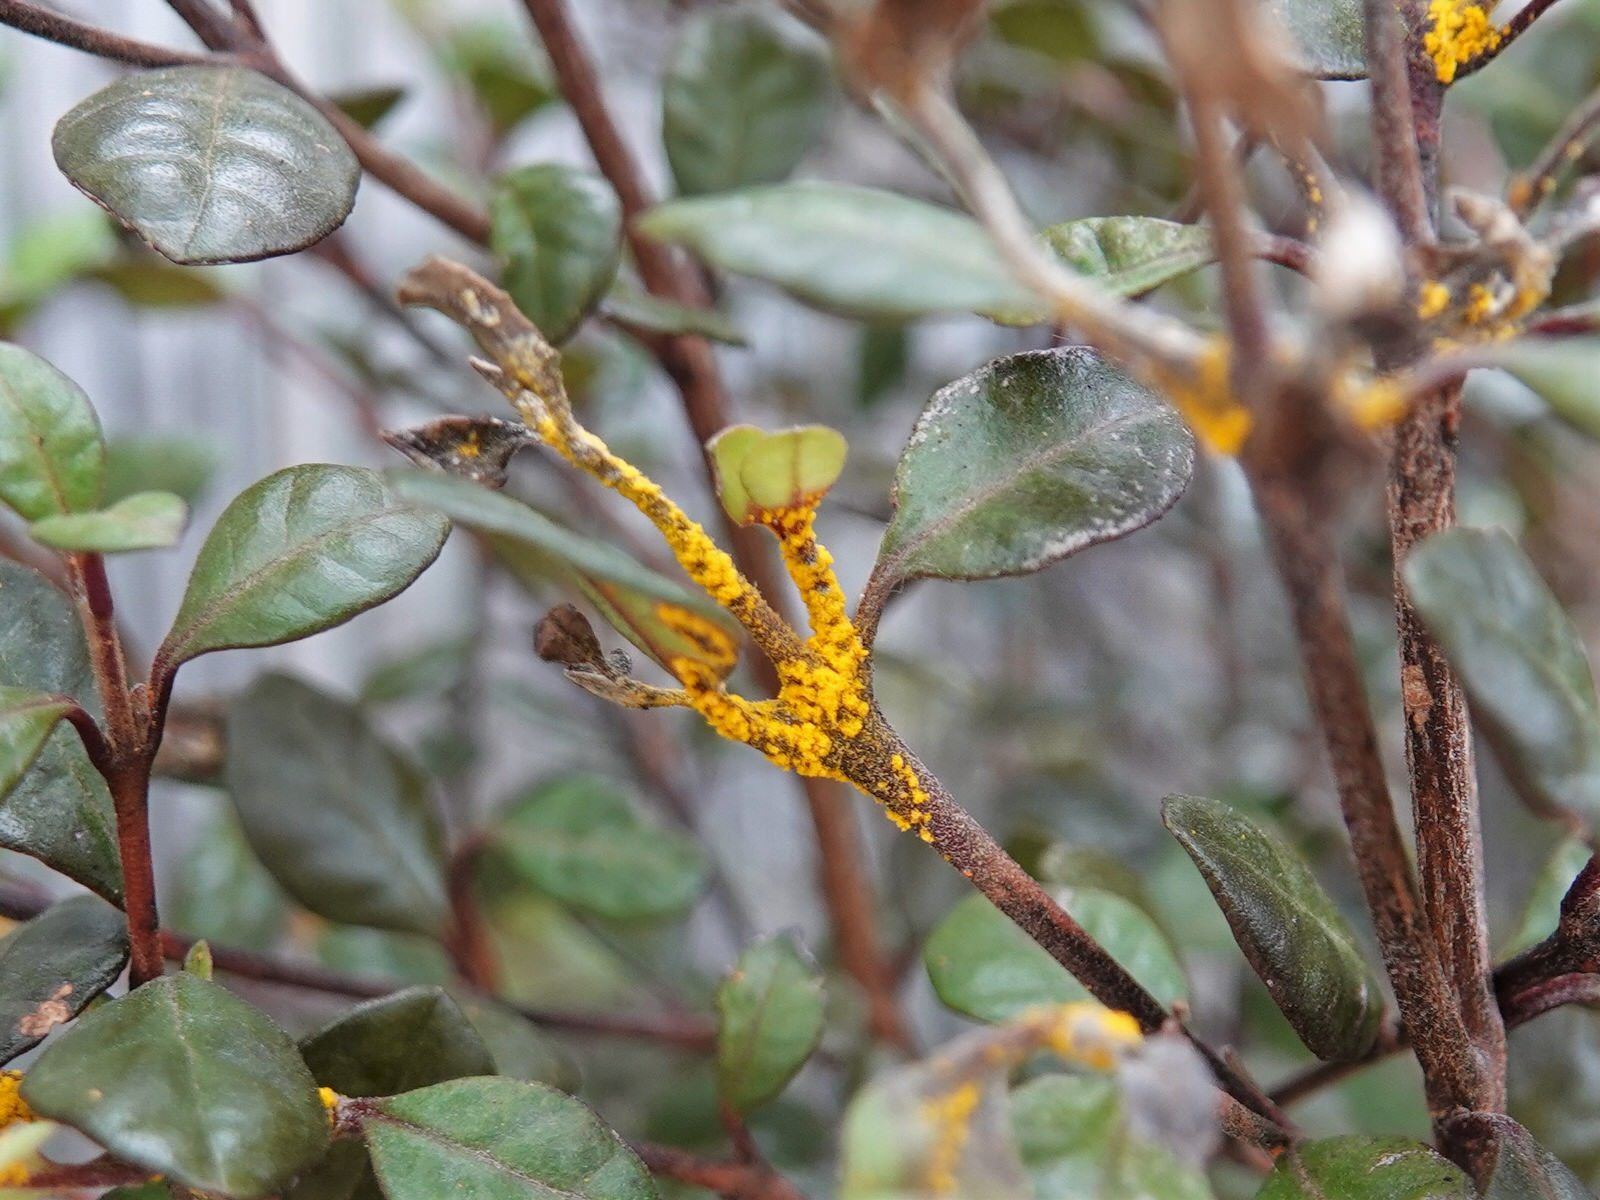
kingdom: Fungi
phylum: Basidiomycota
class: Pucciniomycetes
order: Pucciniales
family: Sphaerophragmiaceae
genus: Austropuccinia
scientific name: Austropuccinia psidii
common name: Myrtle rust
